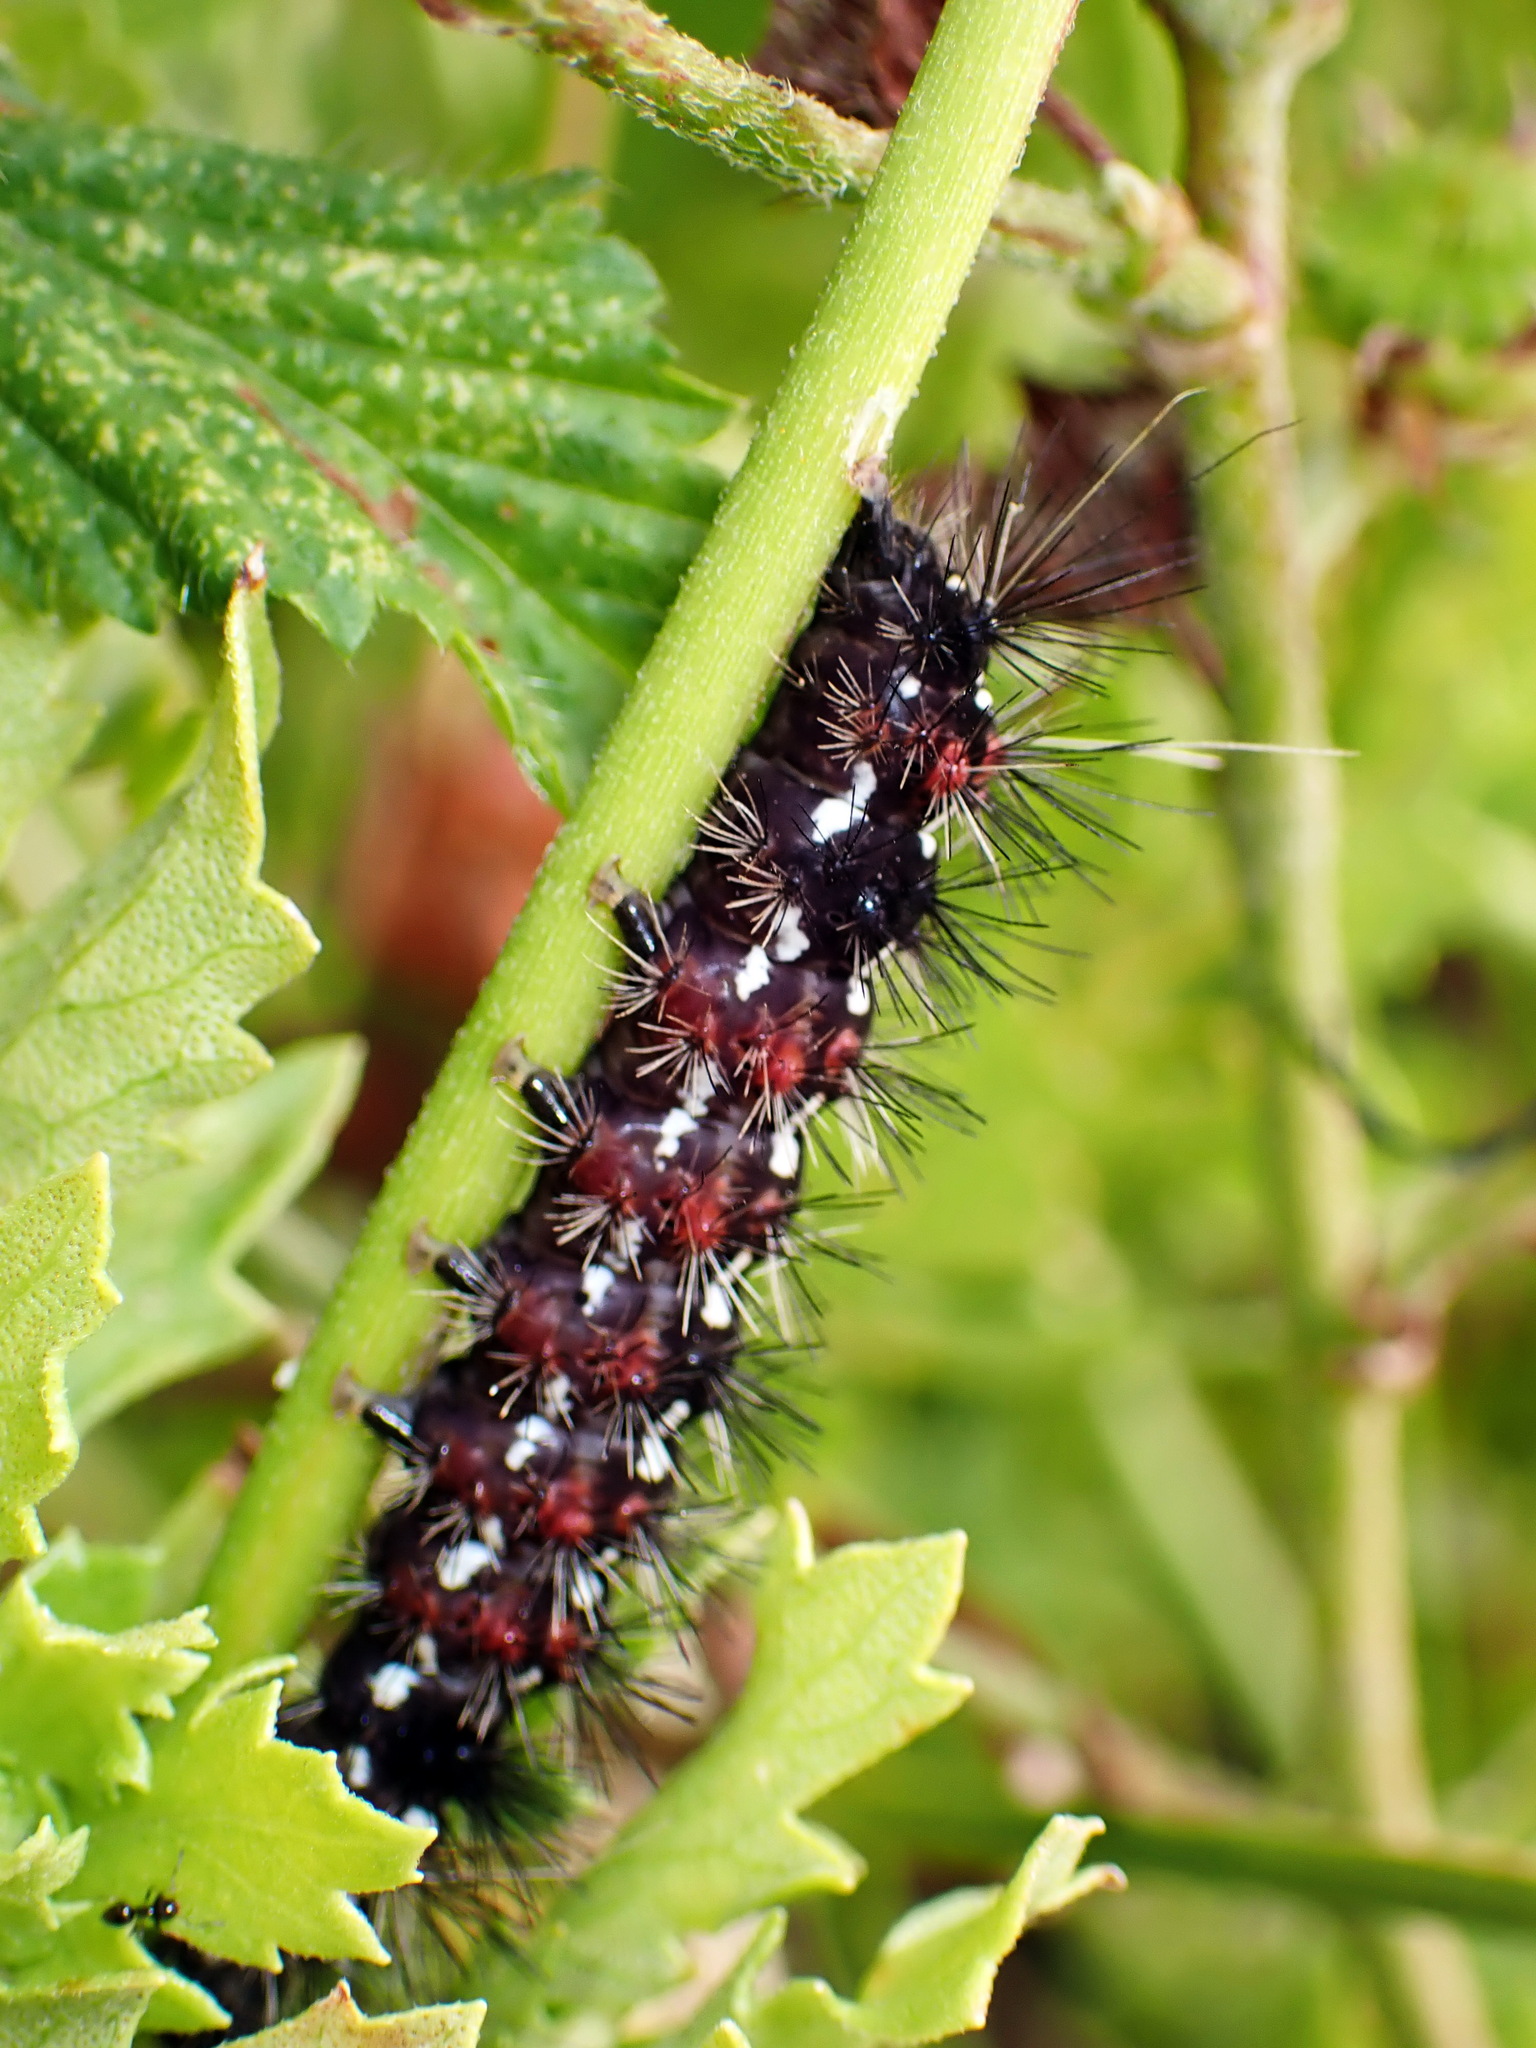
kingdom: Animalia
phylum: Arthropoda
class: Insecta
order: Lepidoptera
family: Erebidae
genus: Pareuchaetes
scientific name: Pareuchaetes insulata
